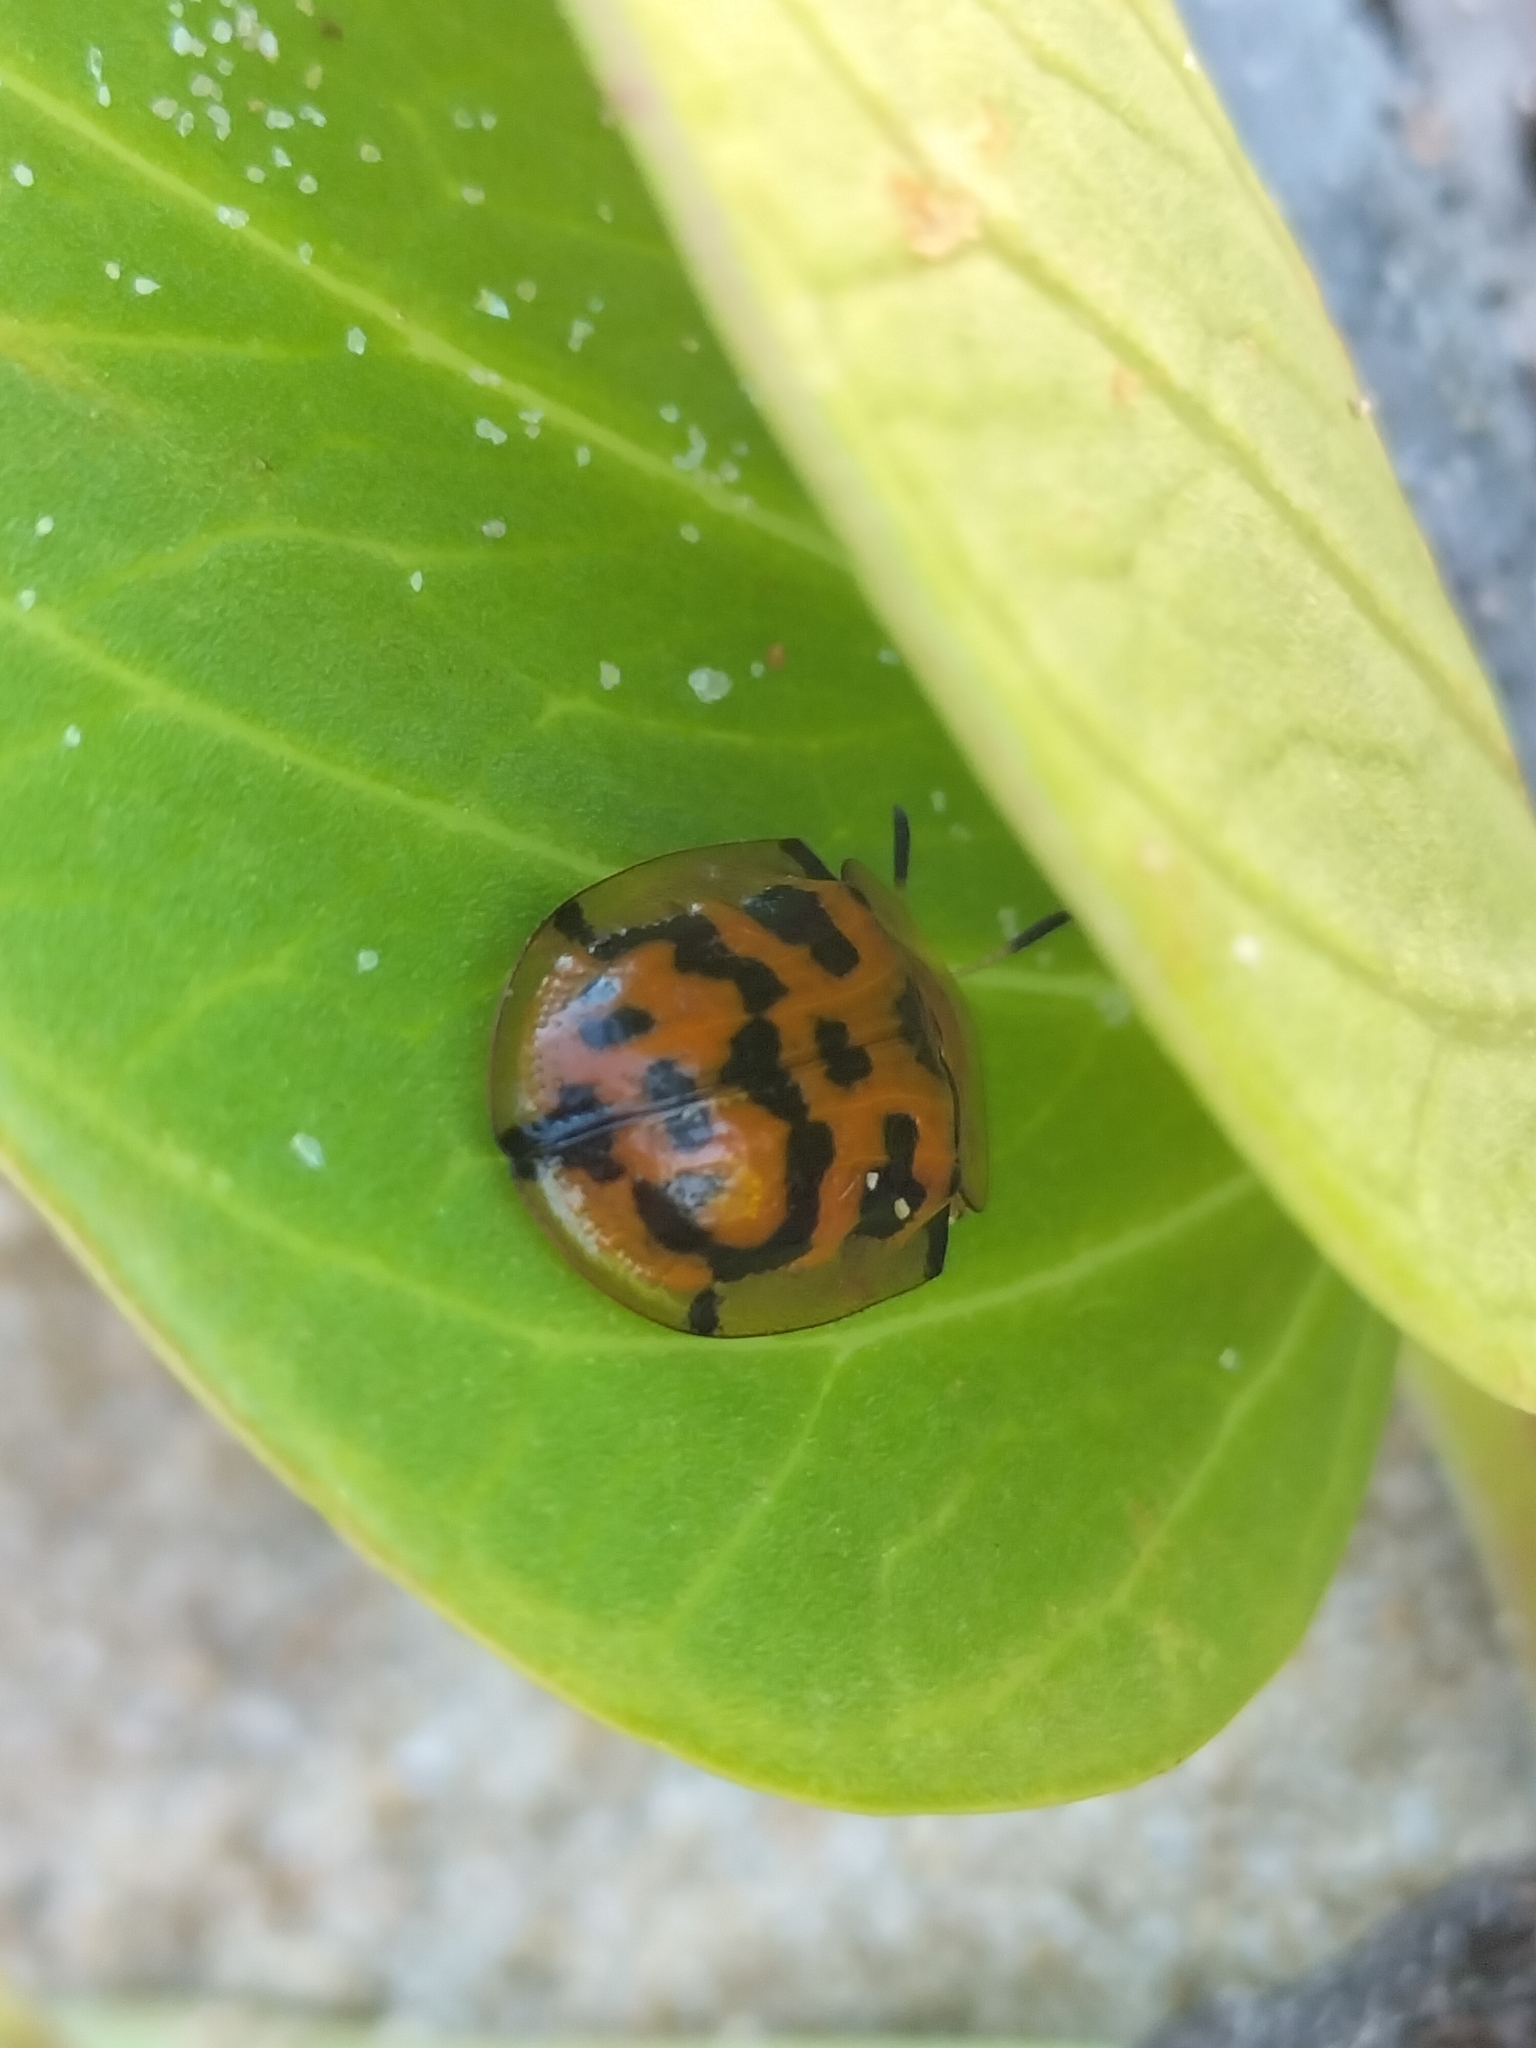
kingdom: Animalia
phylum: Arthropoda
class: Insecta
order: Coleoptera
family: Chrysomelidae
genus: Aspidimorpha
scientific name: Aspidimorpha deusta
